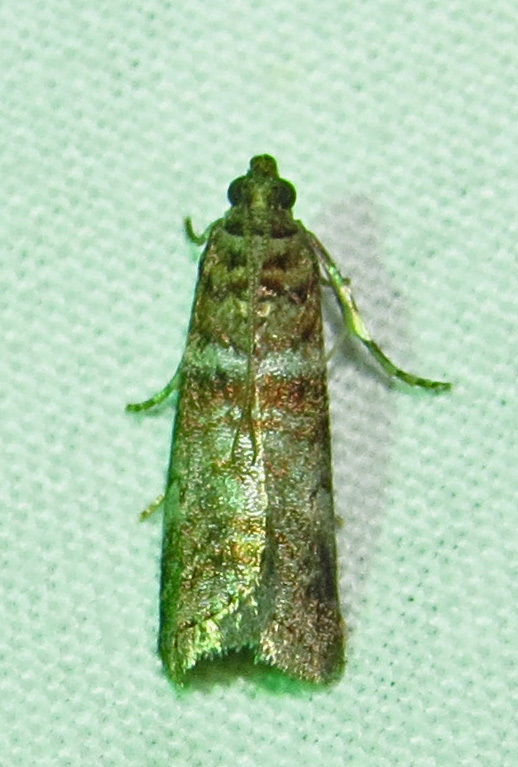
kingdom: Animalia
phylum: Arthropoda
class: Insecta
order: Lepidoptera
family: Pyralidae
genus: Sciota
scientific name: Sciota uvinella
